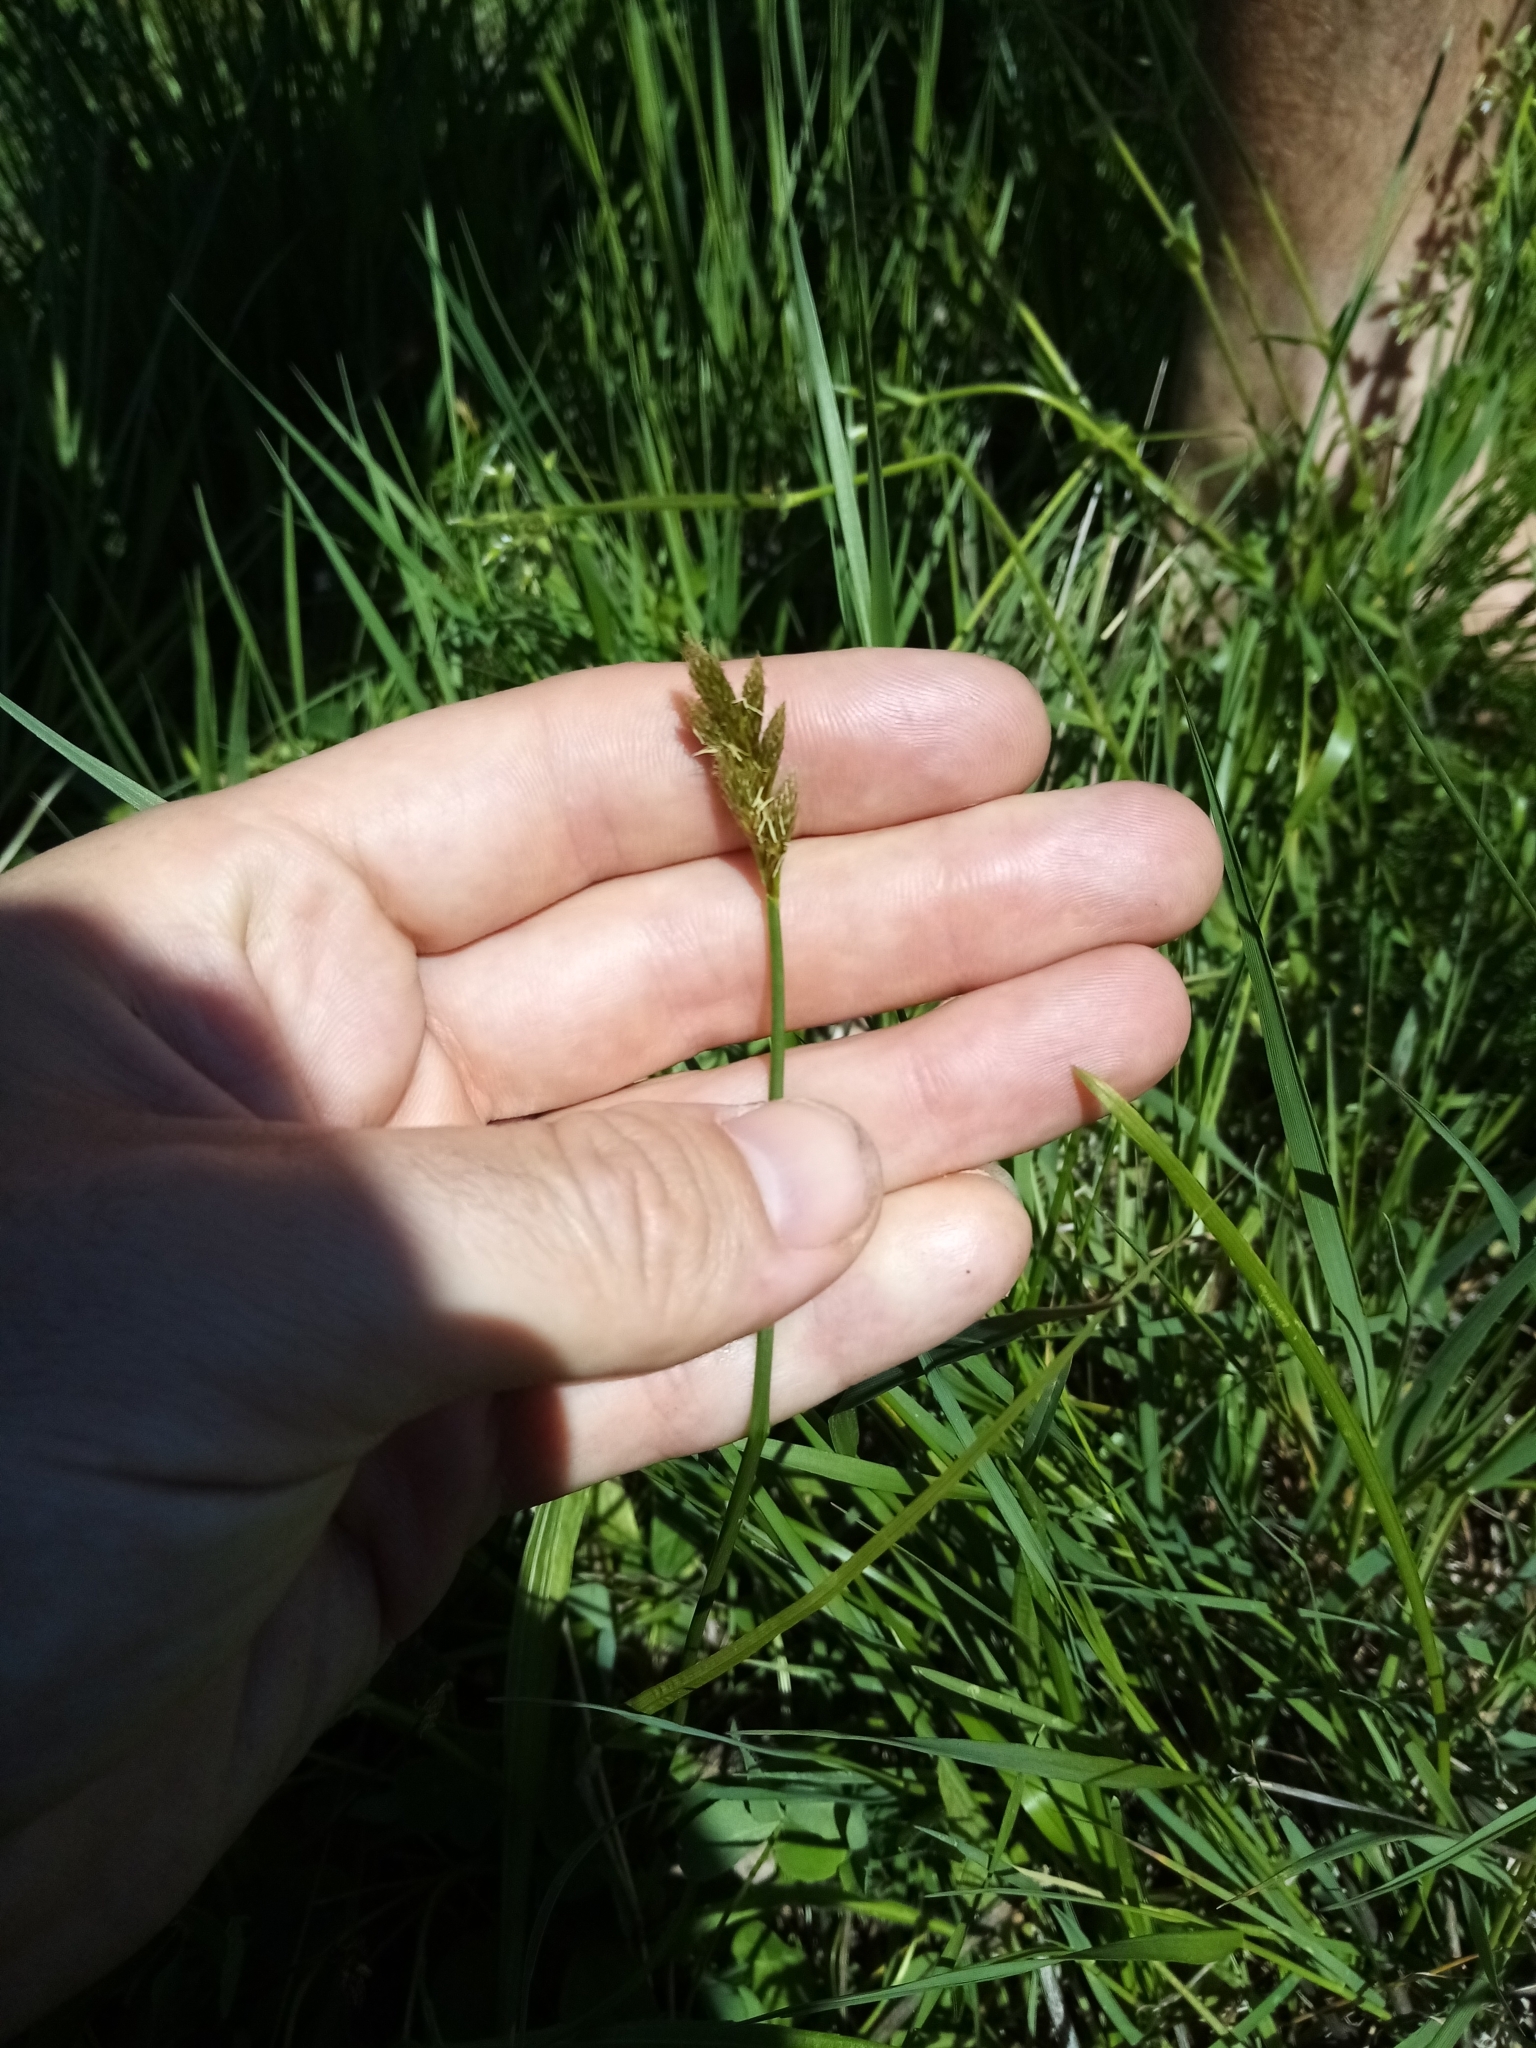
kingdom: Plantae
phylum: Tracheophyta
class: Liliopsida
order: Poales
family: Cyperaceae
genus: Carex
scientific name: Carex leporina
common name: Oval sedge
